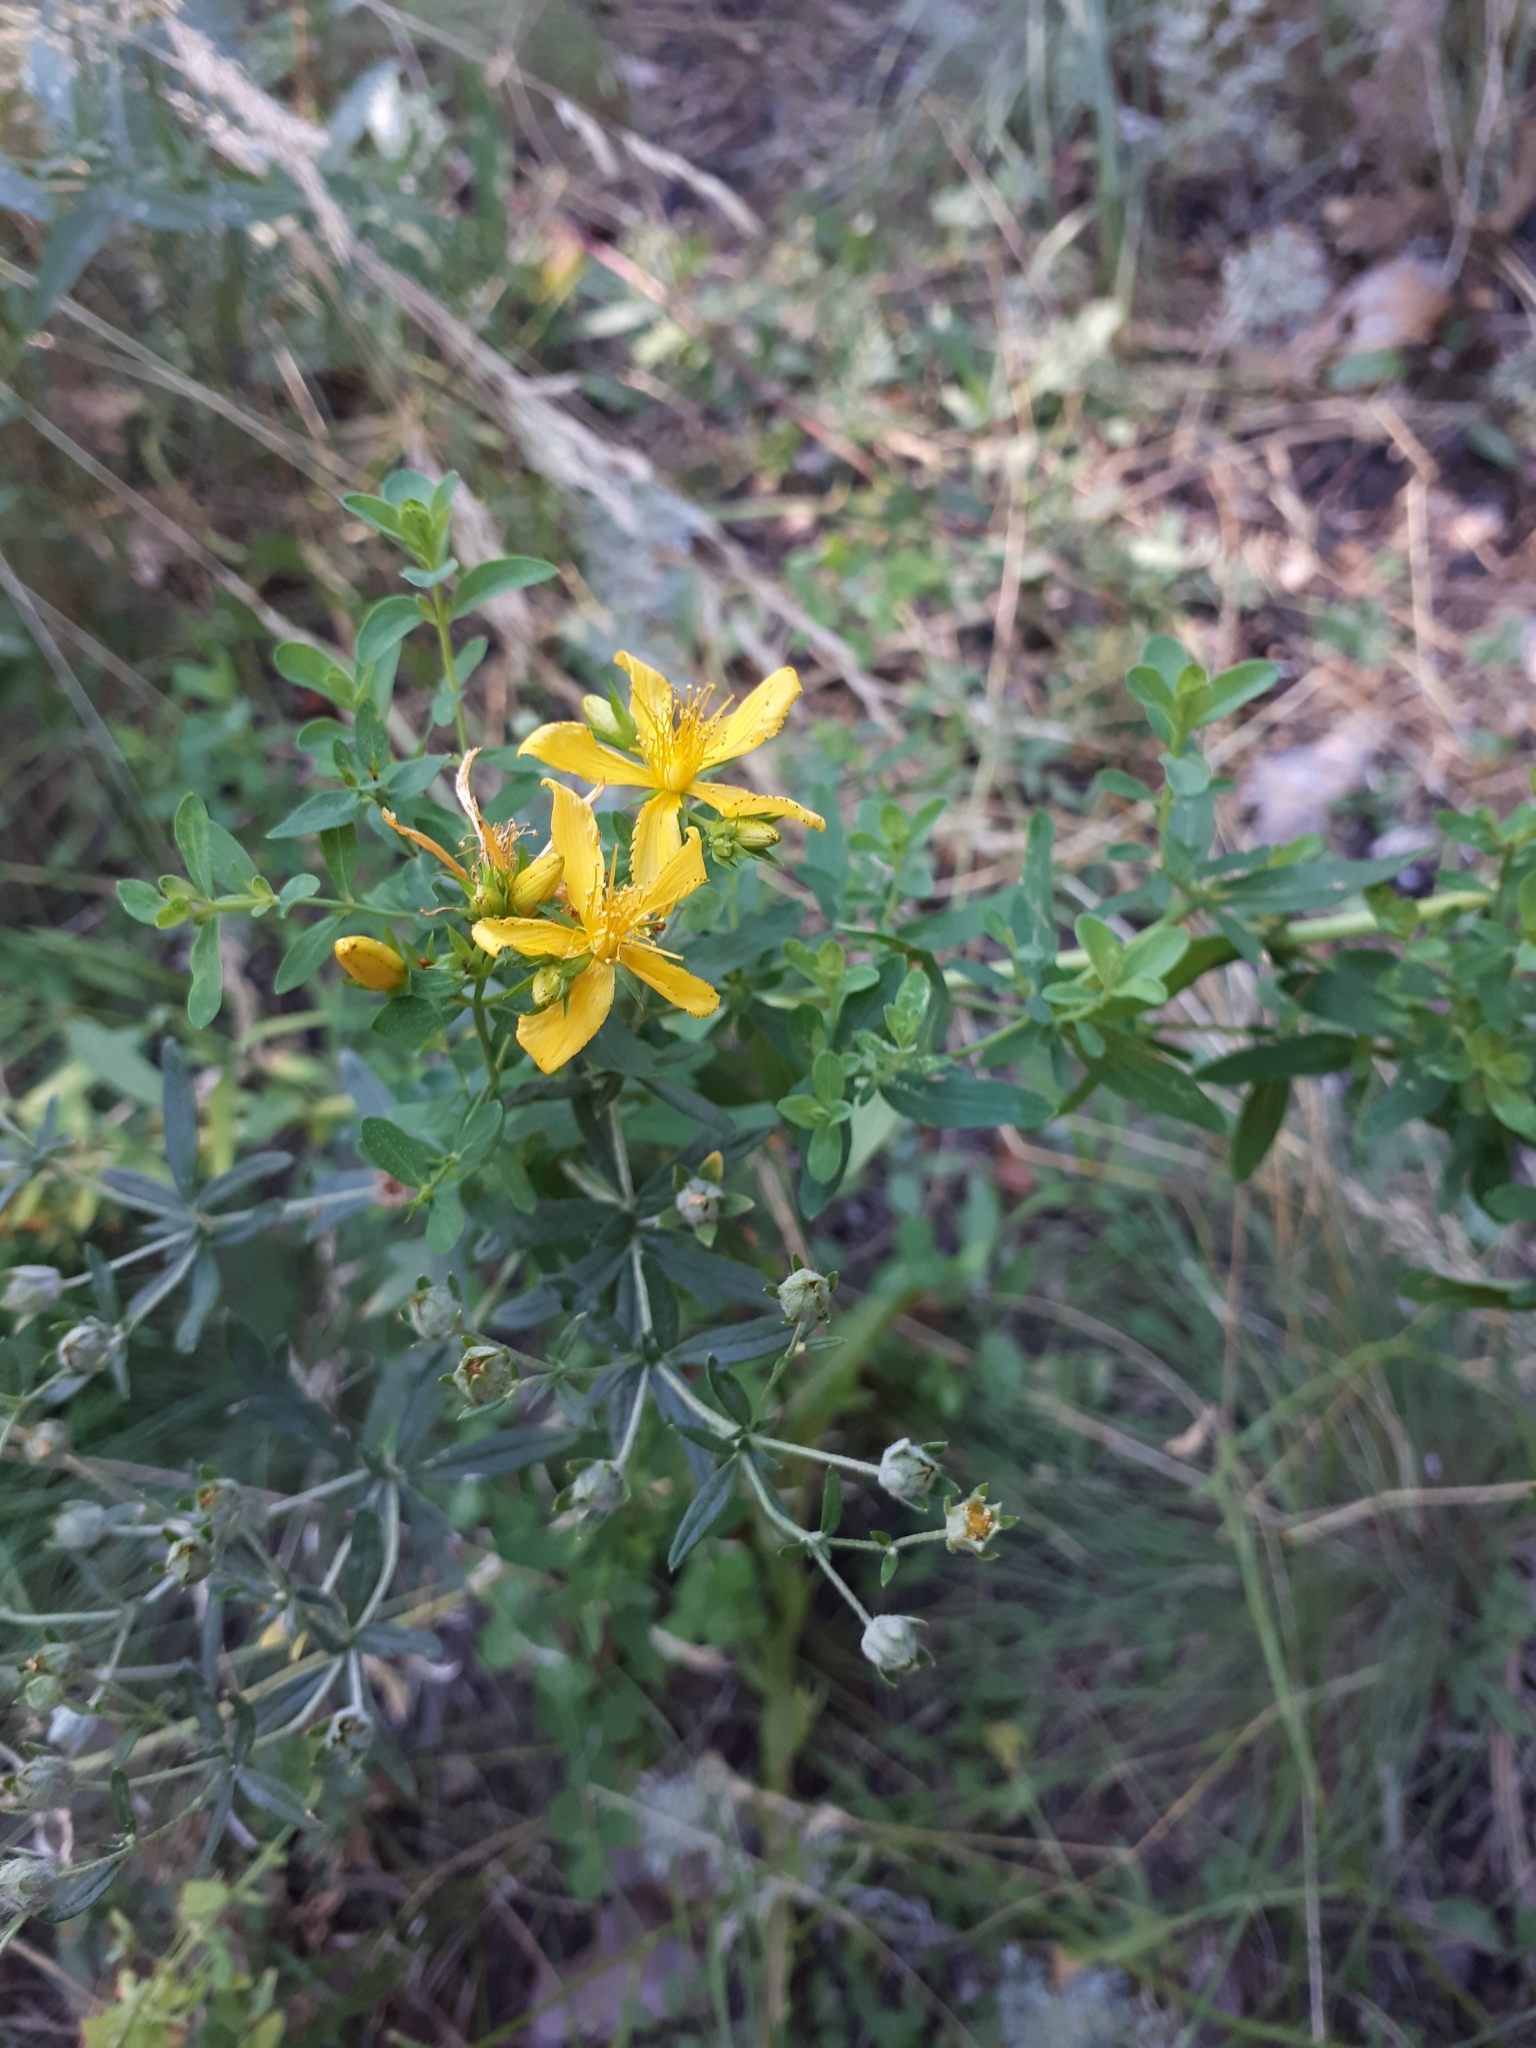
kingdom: Plantae
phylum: Tracheophyta
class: Magnoliopsida
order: Malpighiales
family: Hypericaceae
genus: Hypericum
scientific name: Hypericum perforatum
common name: Common st. johnswort
